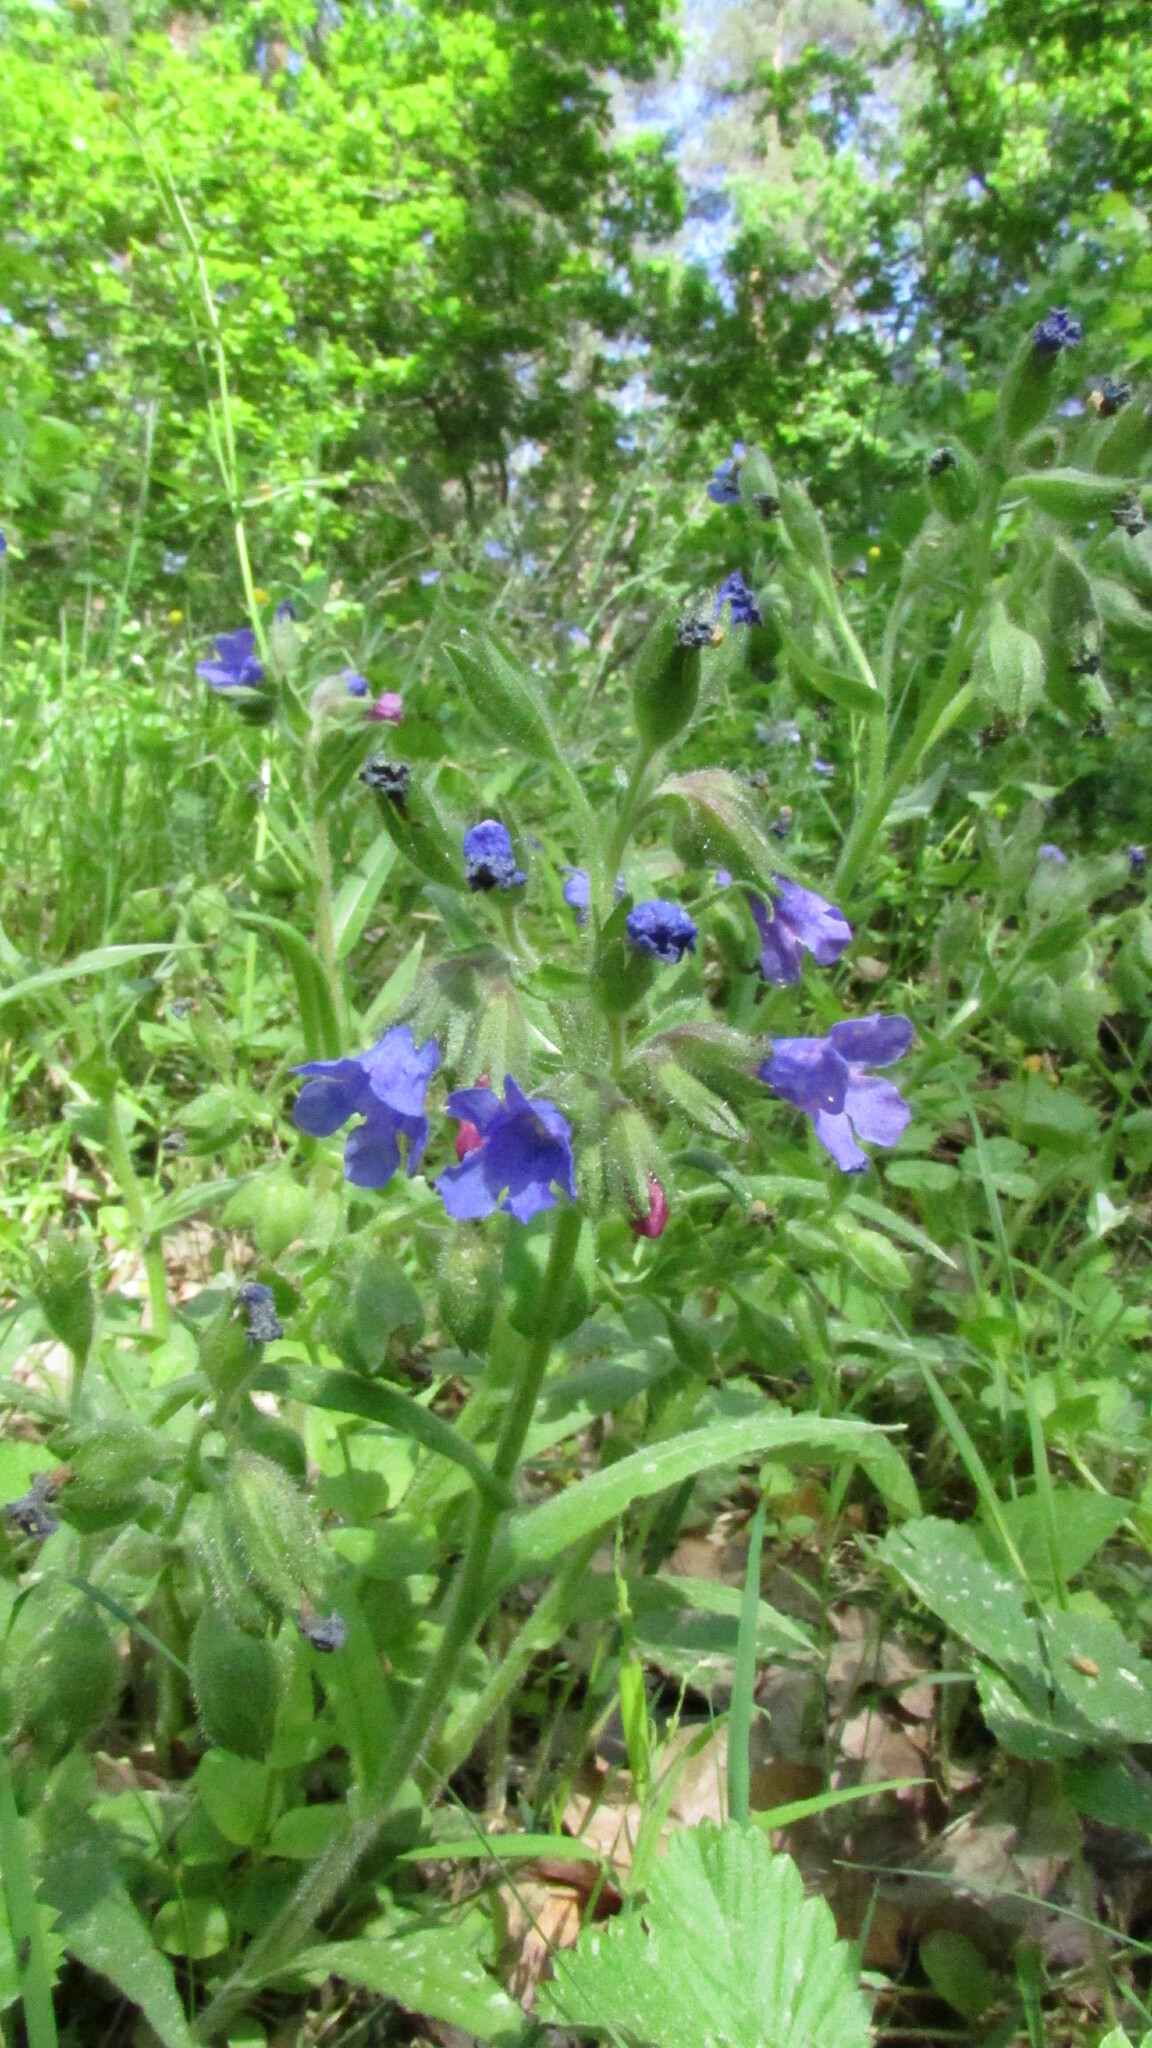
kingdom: Plantae
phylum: Tracheophyta
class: Magnoliopsida
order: Boraginales
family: Boraginaceae
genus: Pulmonaria
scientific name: Pulmonaria angustifolia
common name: Blue cowslip
